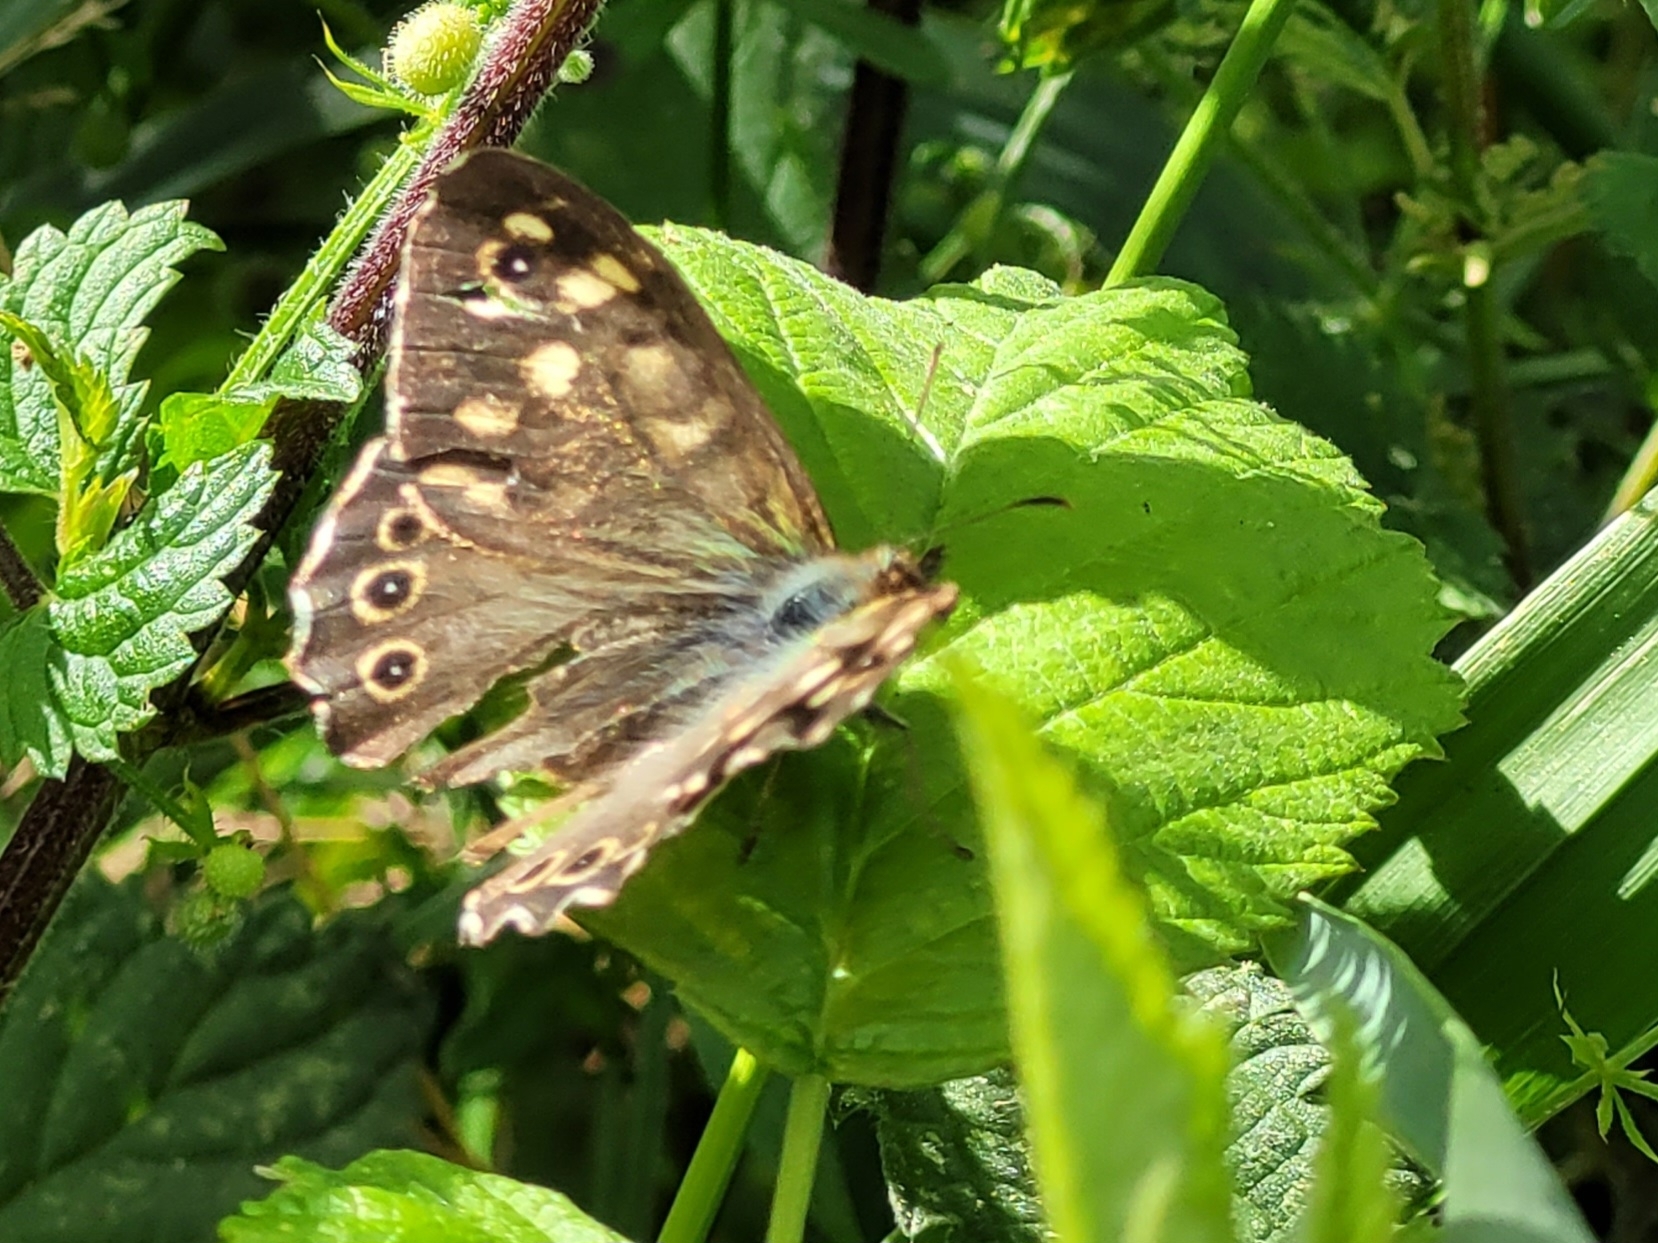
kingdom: Animalia
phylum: Arthropoda
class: Insecta
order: Lepidoptera
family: Nymphalidae
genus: Pararge
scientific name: Pararge aegeria
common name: Speckled wood
